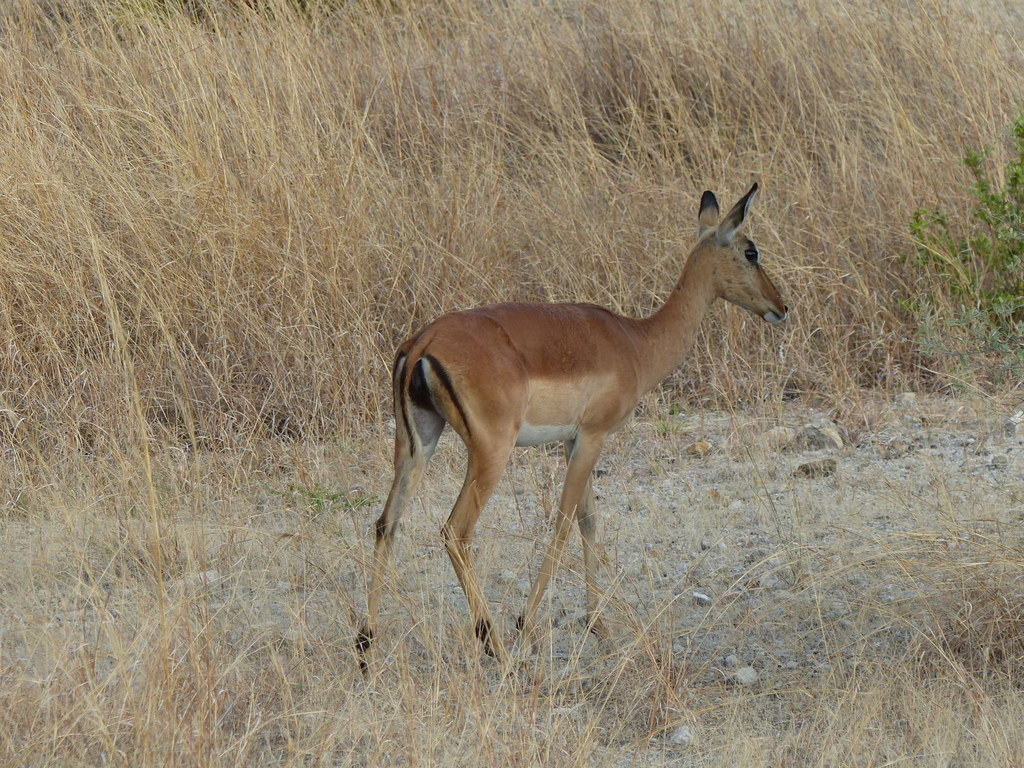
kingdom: Animalia
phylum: Chordata
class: Mammalia
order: Artiodactyla
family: Bovidae
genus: Aepyceros
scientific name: Aepyceros melampus
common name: Impala
